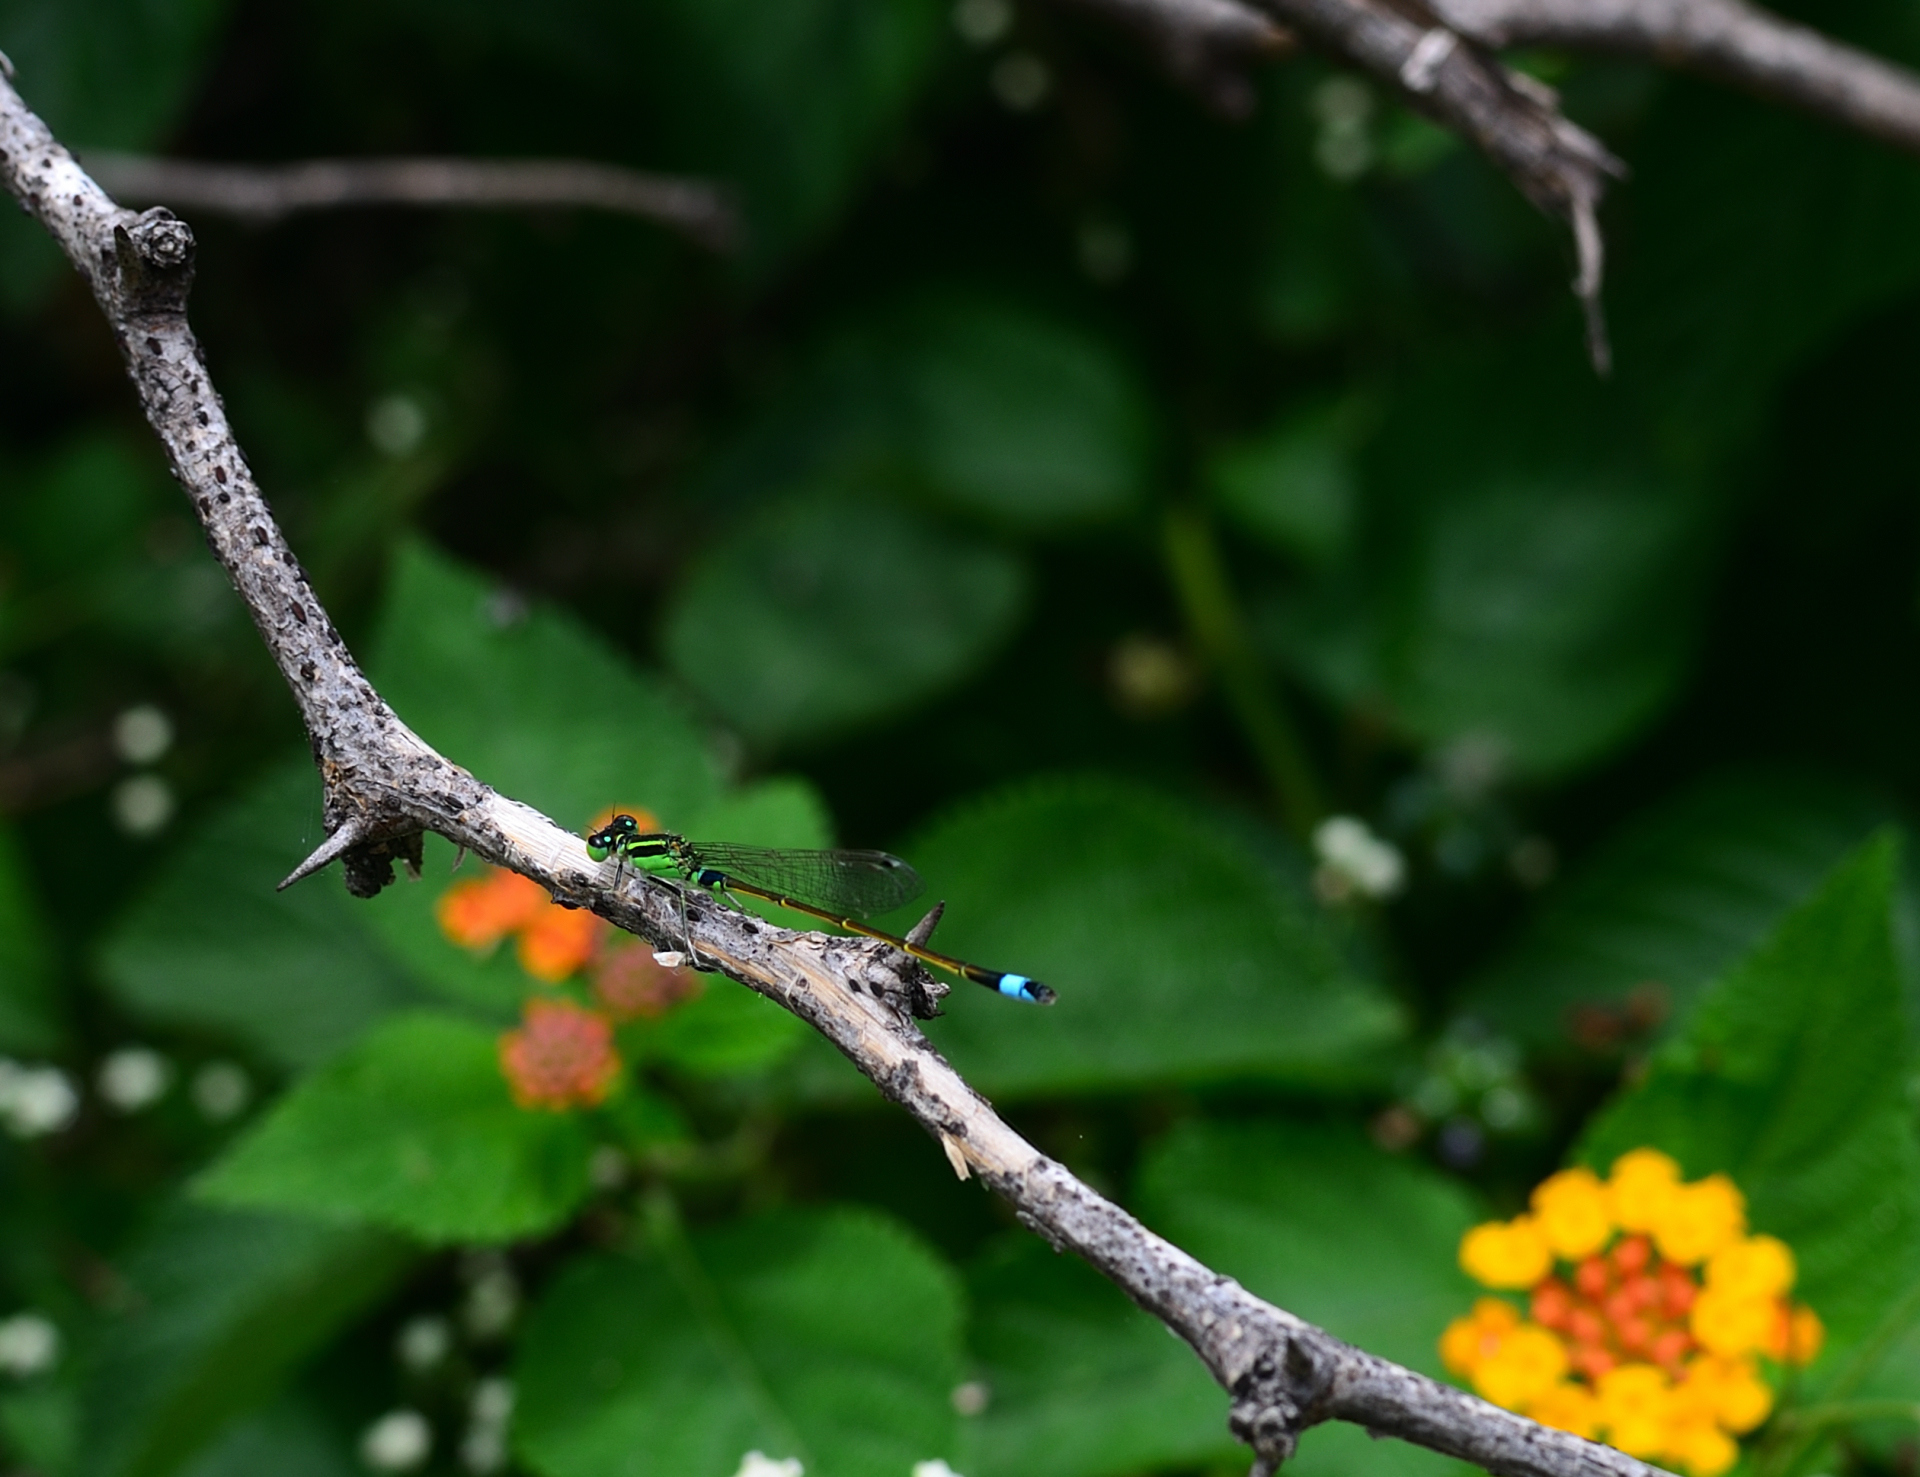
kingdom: Animalia
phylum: Arthropoda
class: Insecta
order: Odonata
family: Coenagrionidae
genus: Ischnura
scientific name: Ischnura senegalensis
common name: Tropical bluetail
